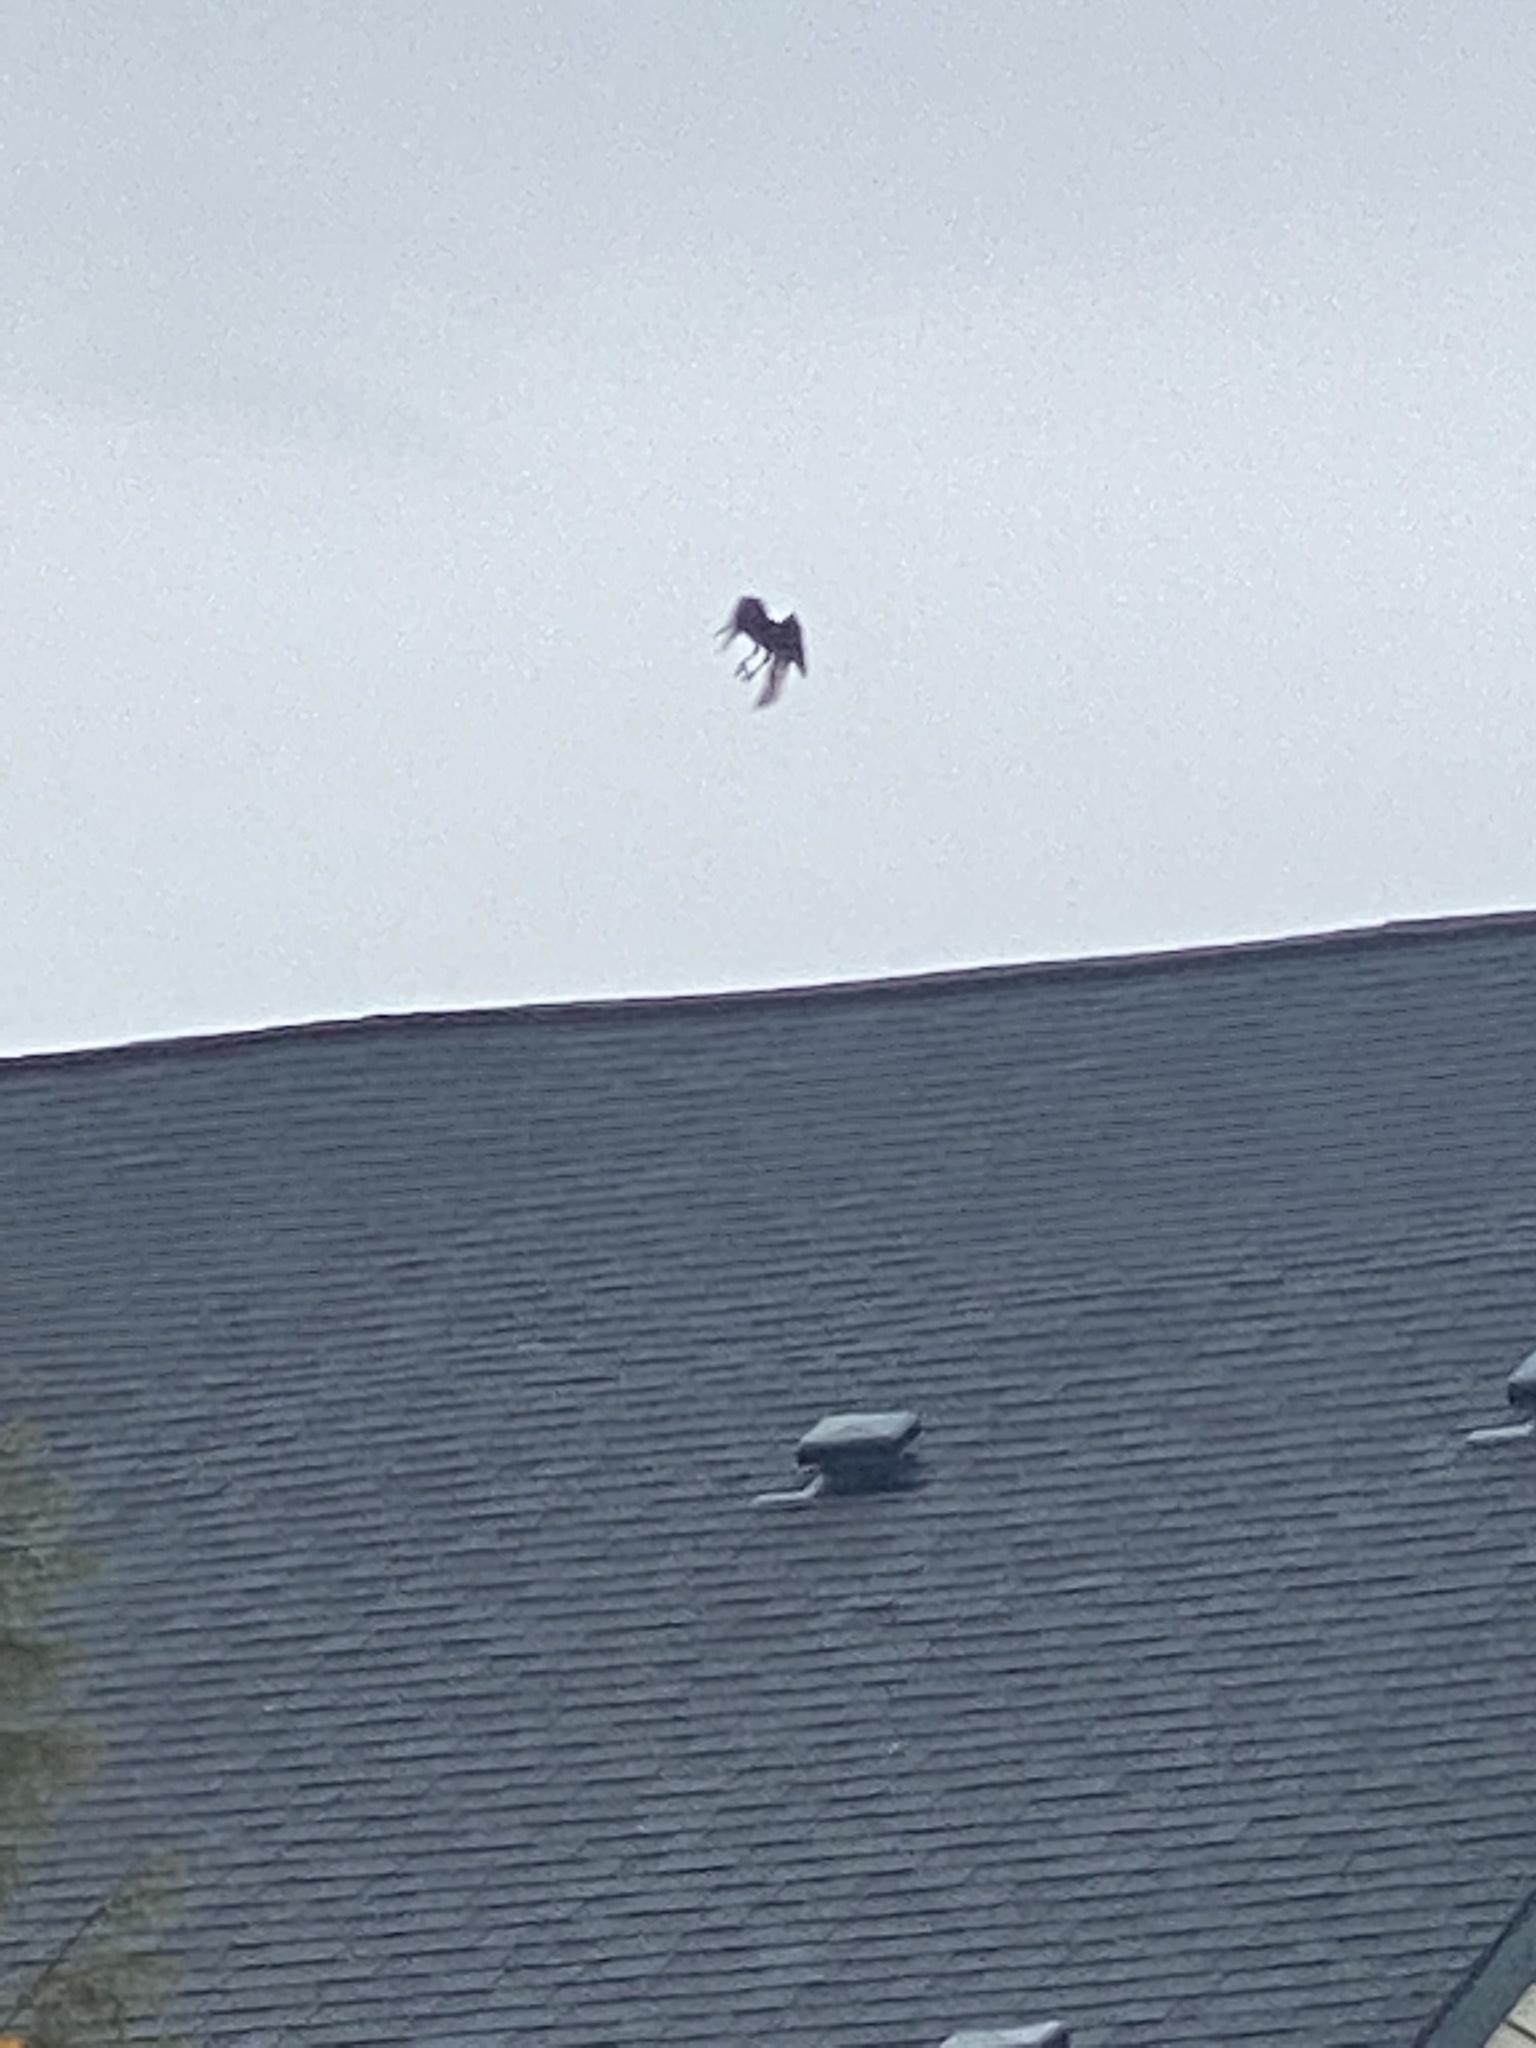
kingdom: Animalia
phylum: Chordata
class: Aves
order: Passeriformes
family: Corvidae
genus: Corvus
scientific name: Corvus brachyrhynchos
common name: American crow
